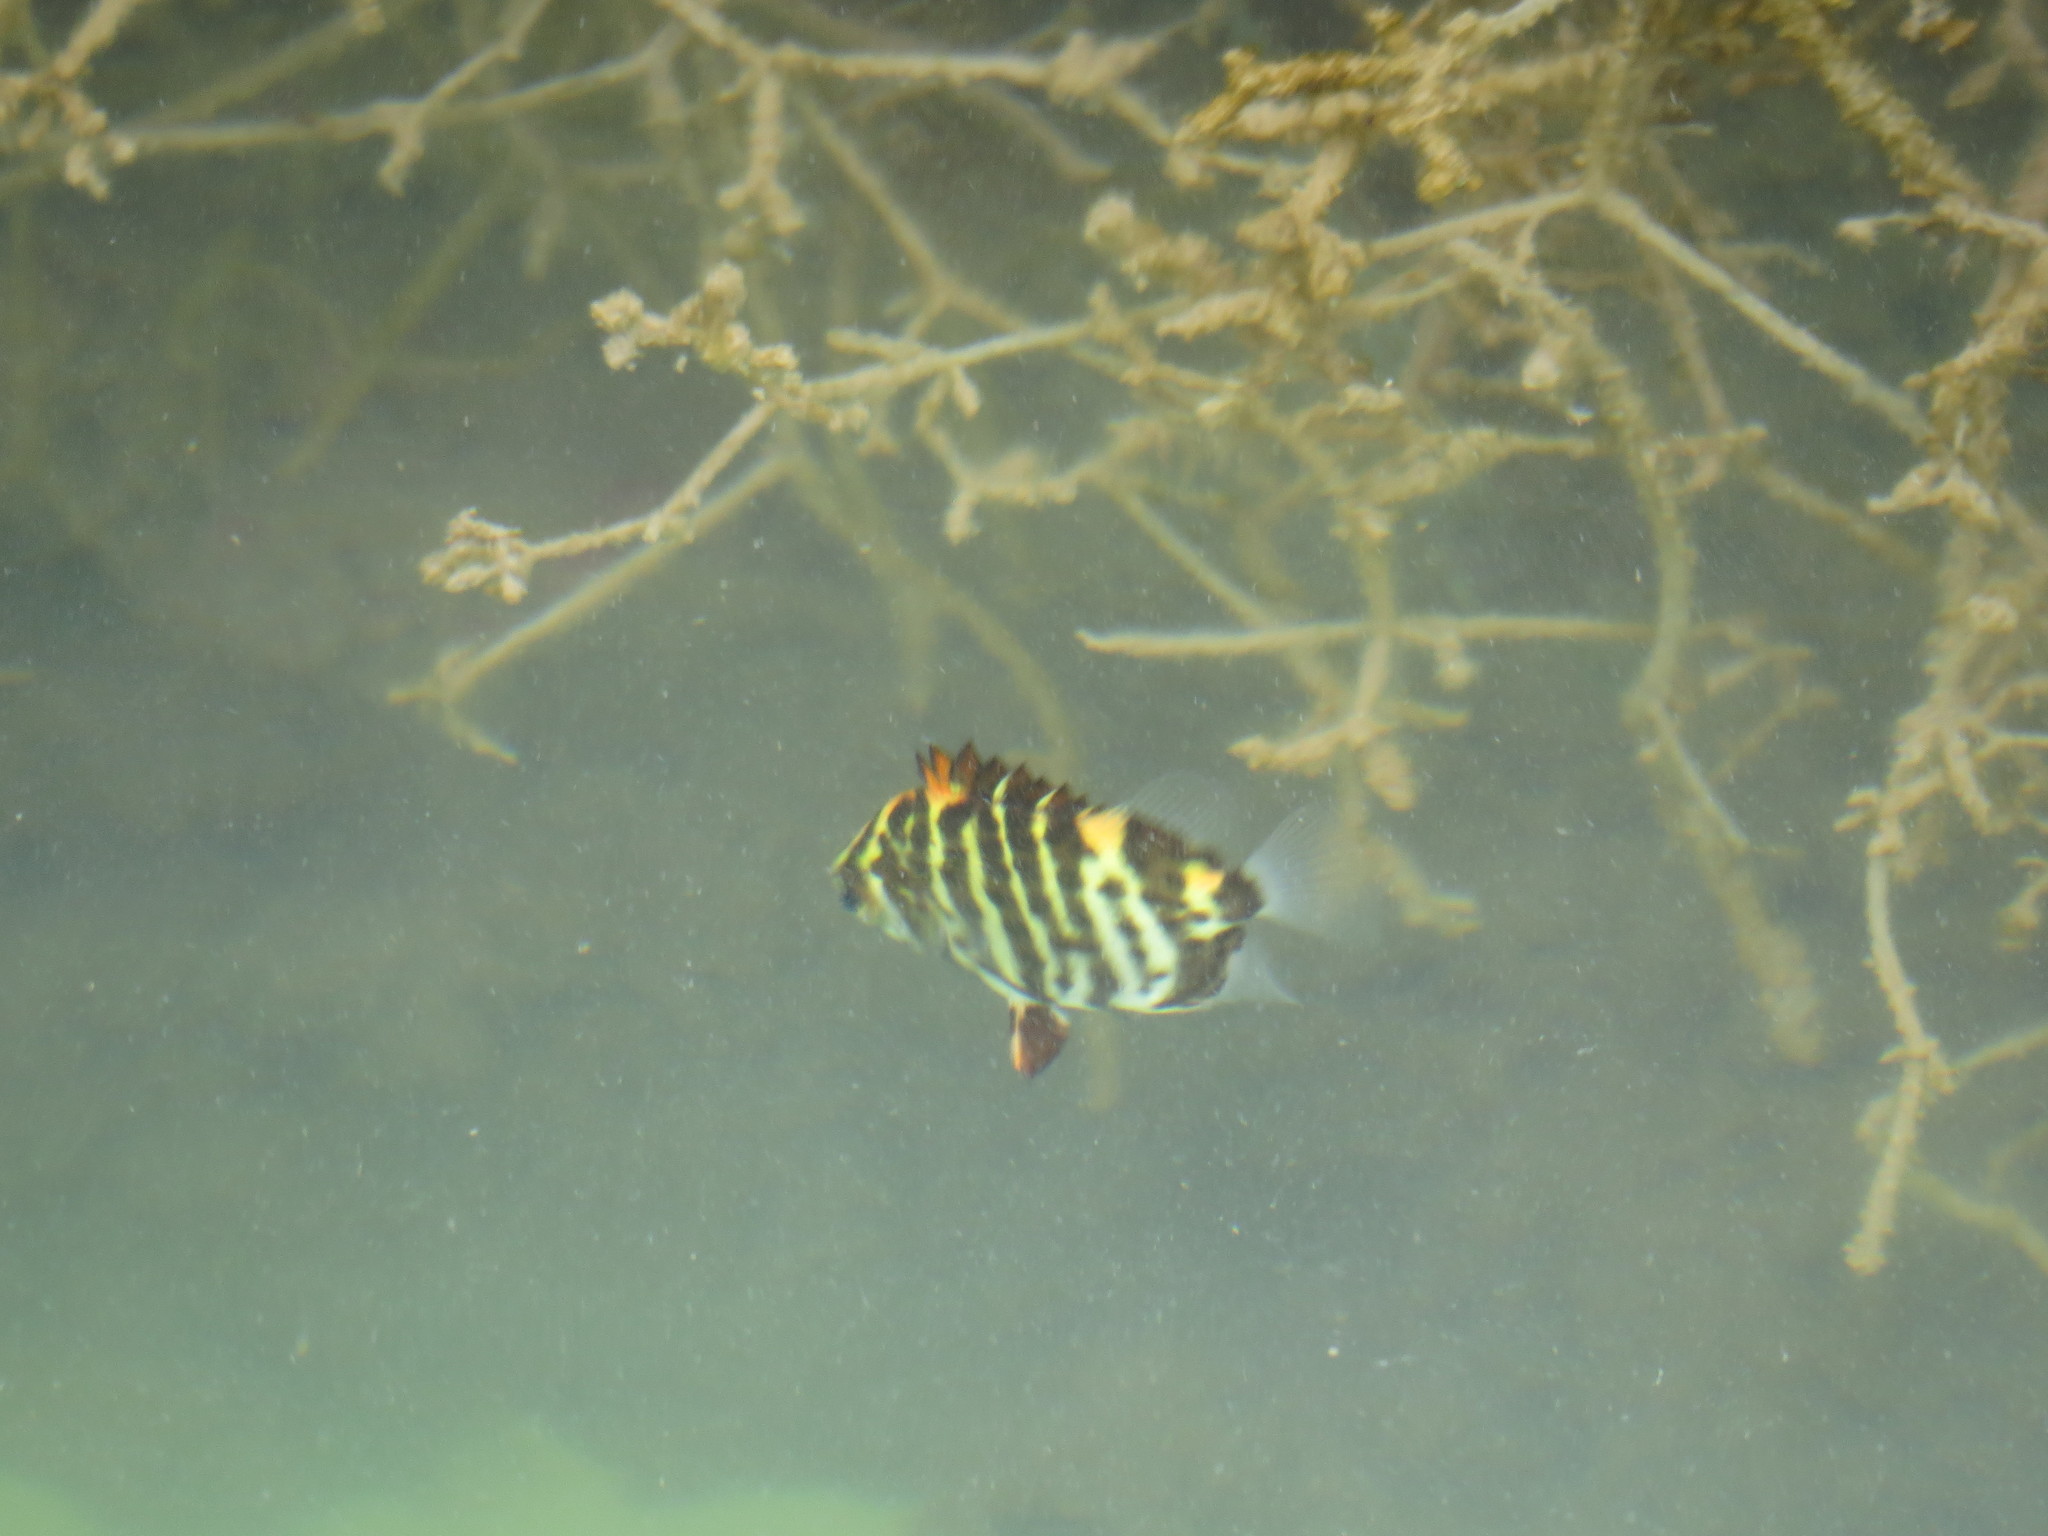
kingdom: Animalia
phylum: Chordata
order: Perciformes
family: Scatophagidae
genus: Scatophagus
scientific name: Scatophagus argus
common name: Spotted scat
